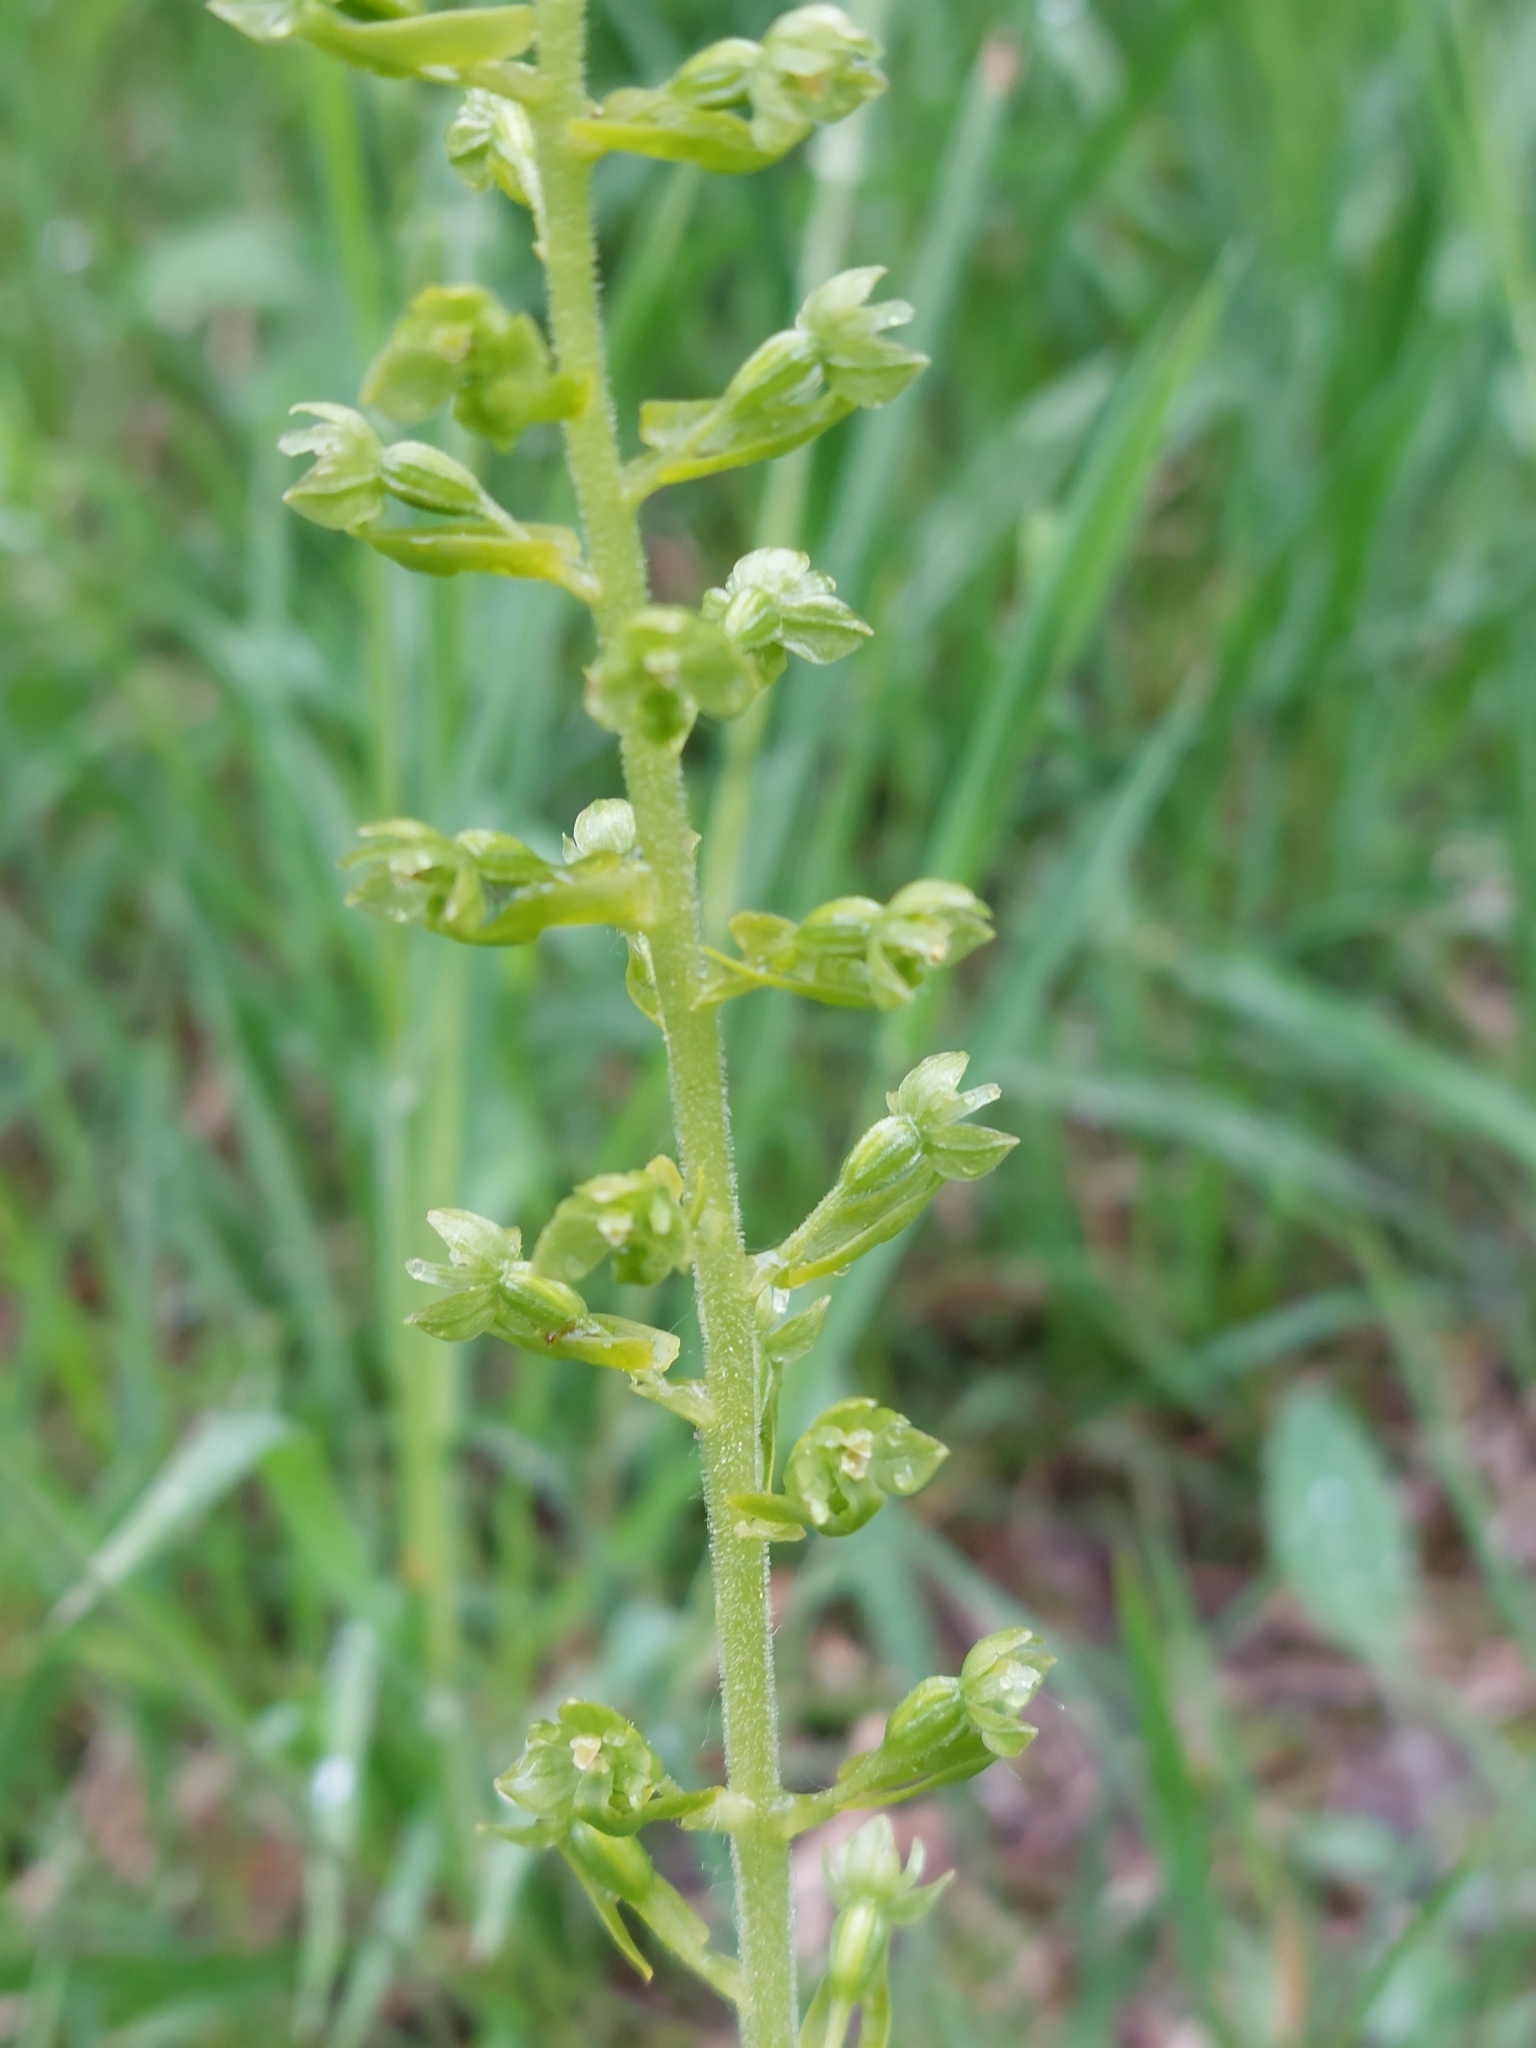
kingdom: Plantae
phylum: Tracheophyta
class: Liliopsida
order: Asparagales
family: Orchidaceae
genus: Neottia
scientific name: Neottia ovata
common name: Common twayblade
